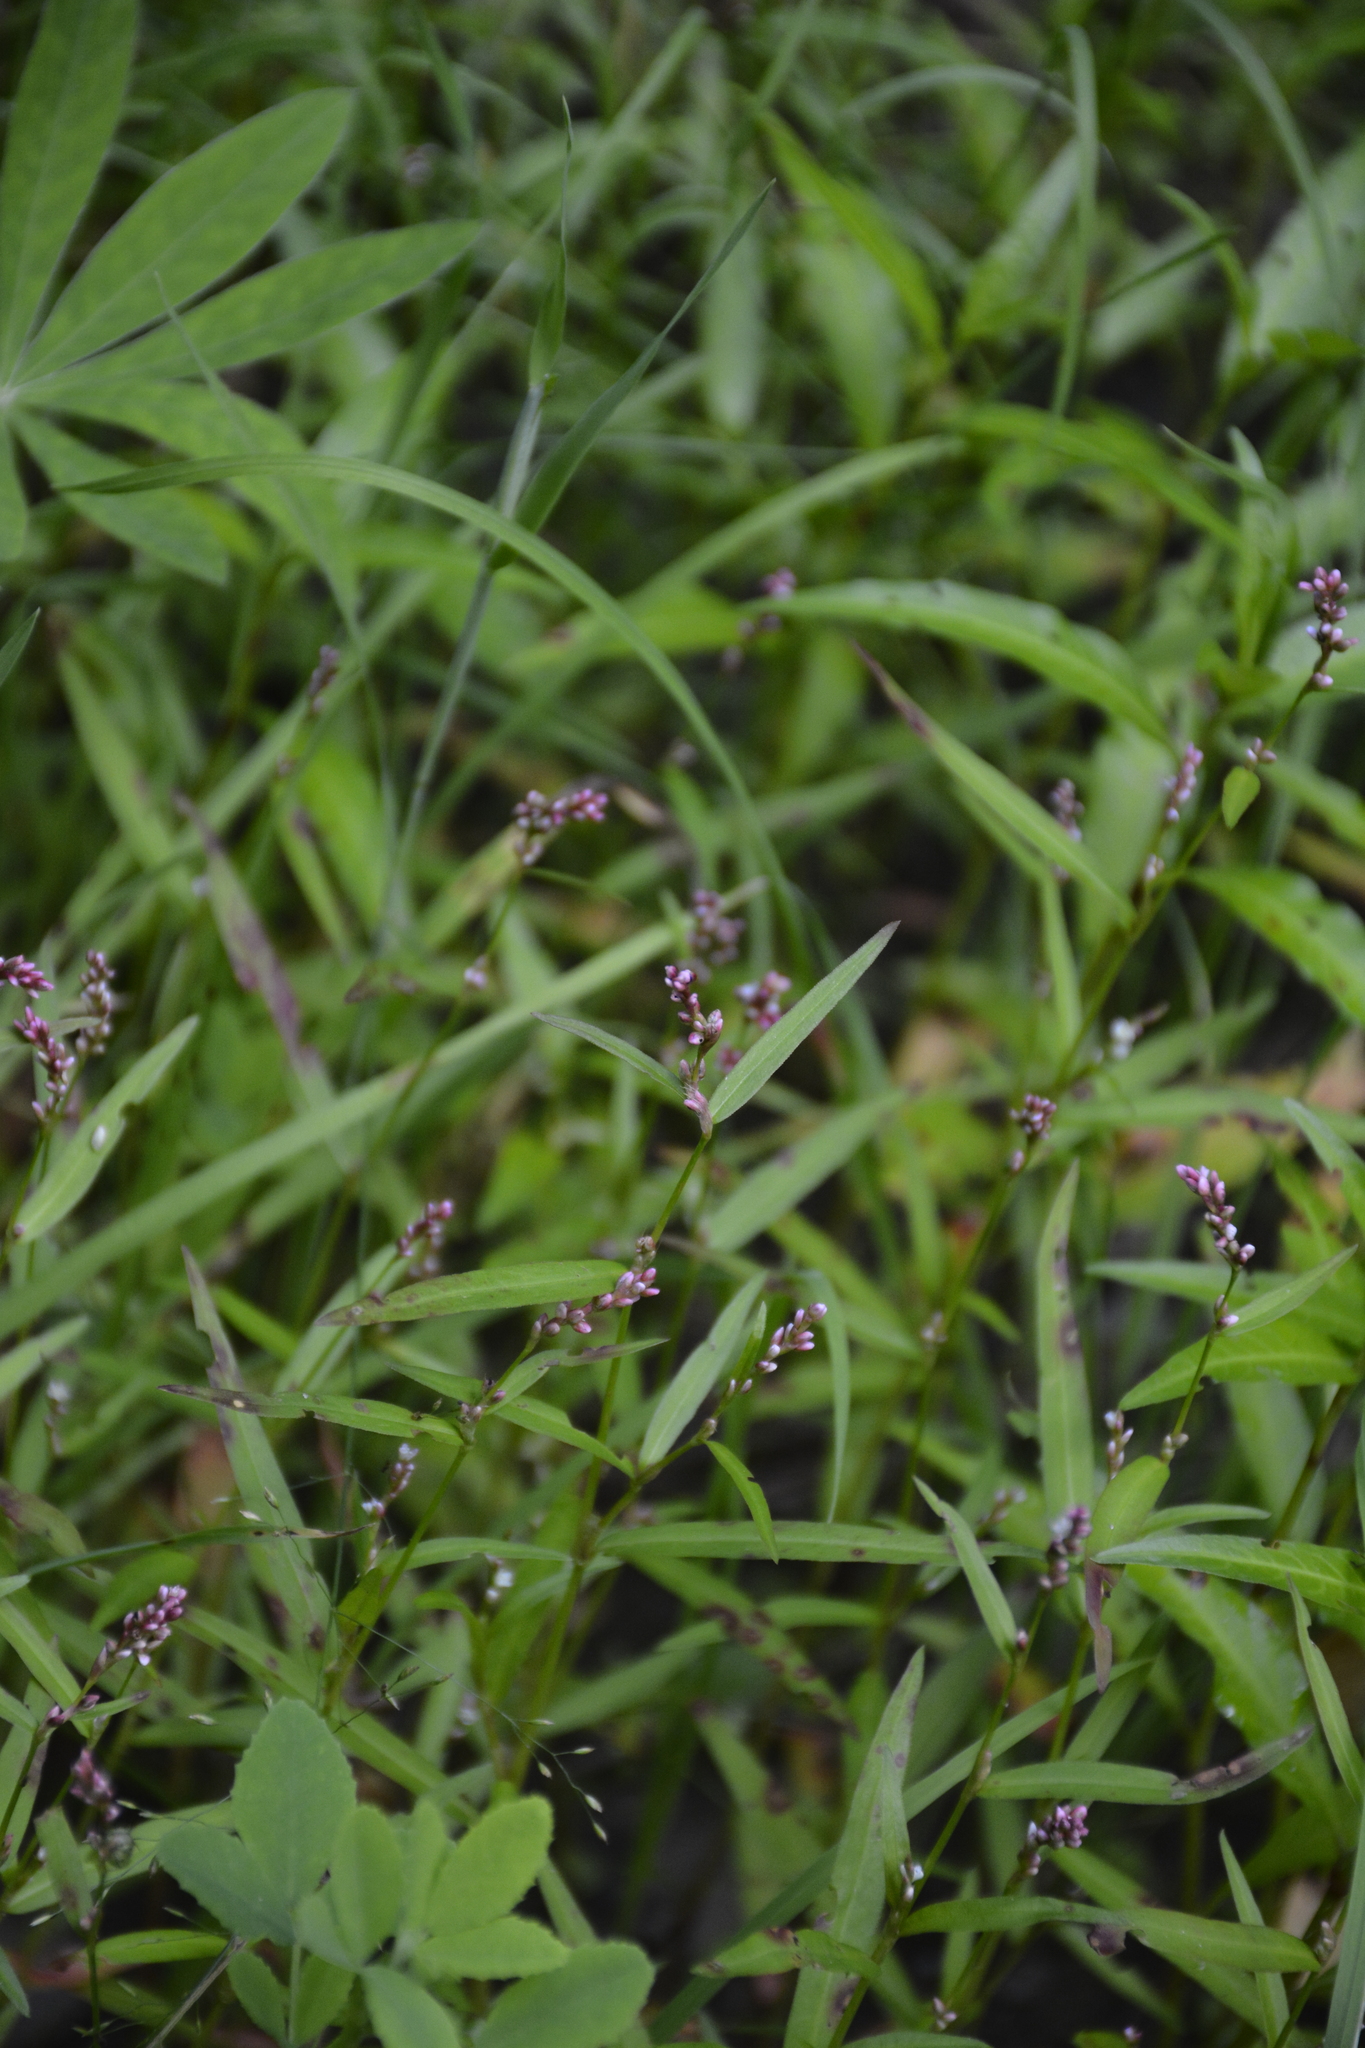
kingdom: Plantae
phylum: Tracheophyta
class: Magnoliopsida
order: Caryophyllales
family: Polygonaceae
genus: Persicaria
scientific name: Persicaria minor
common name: Small water-pepper
